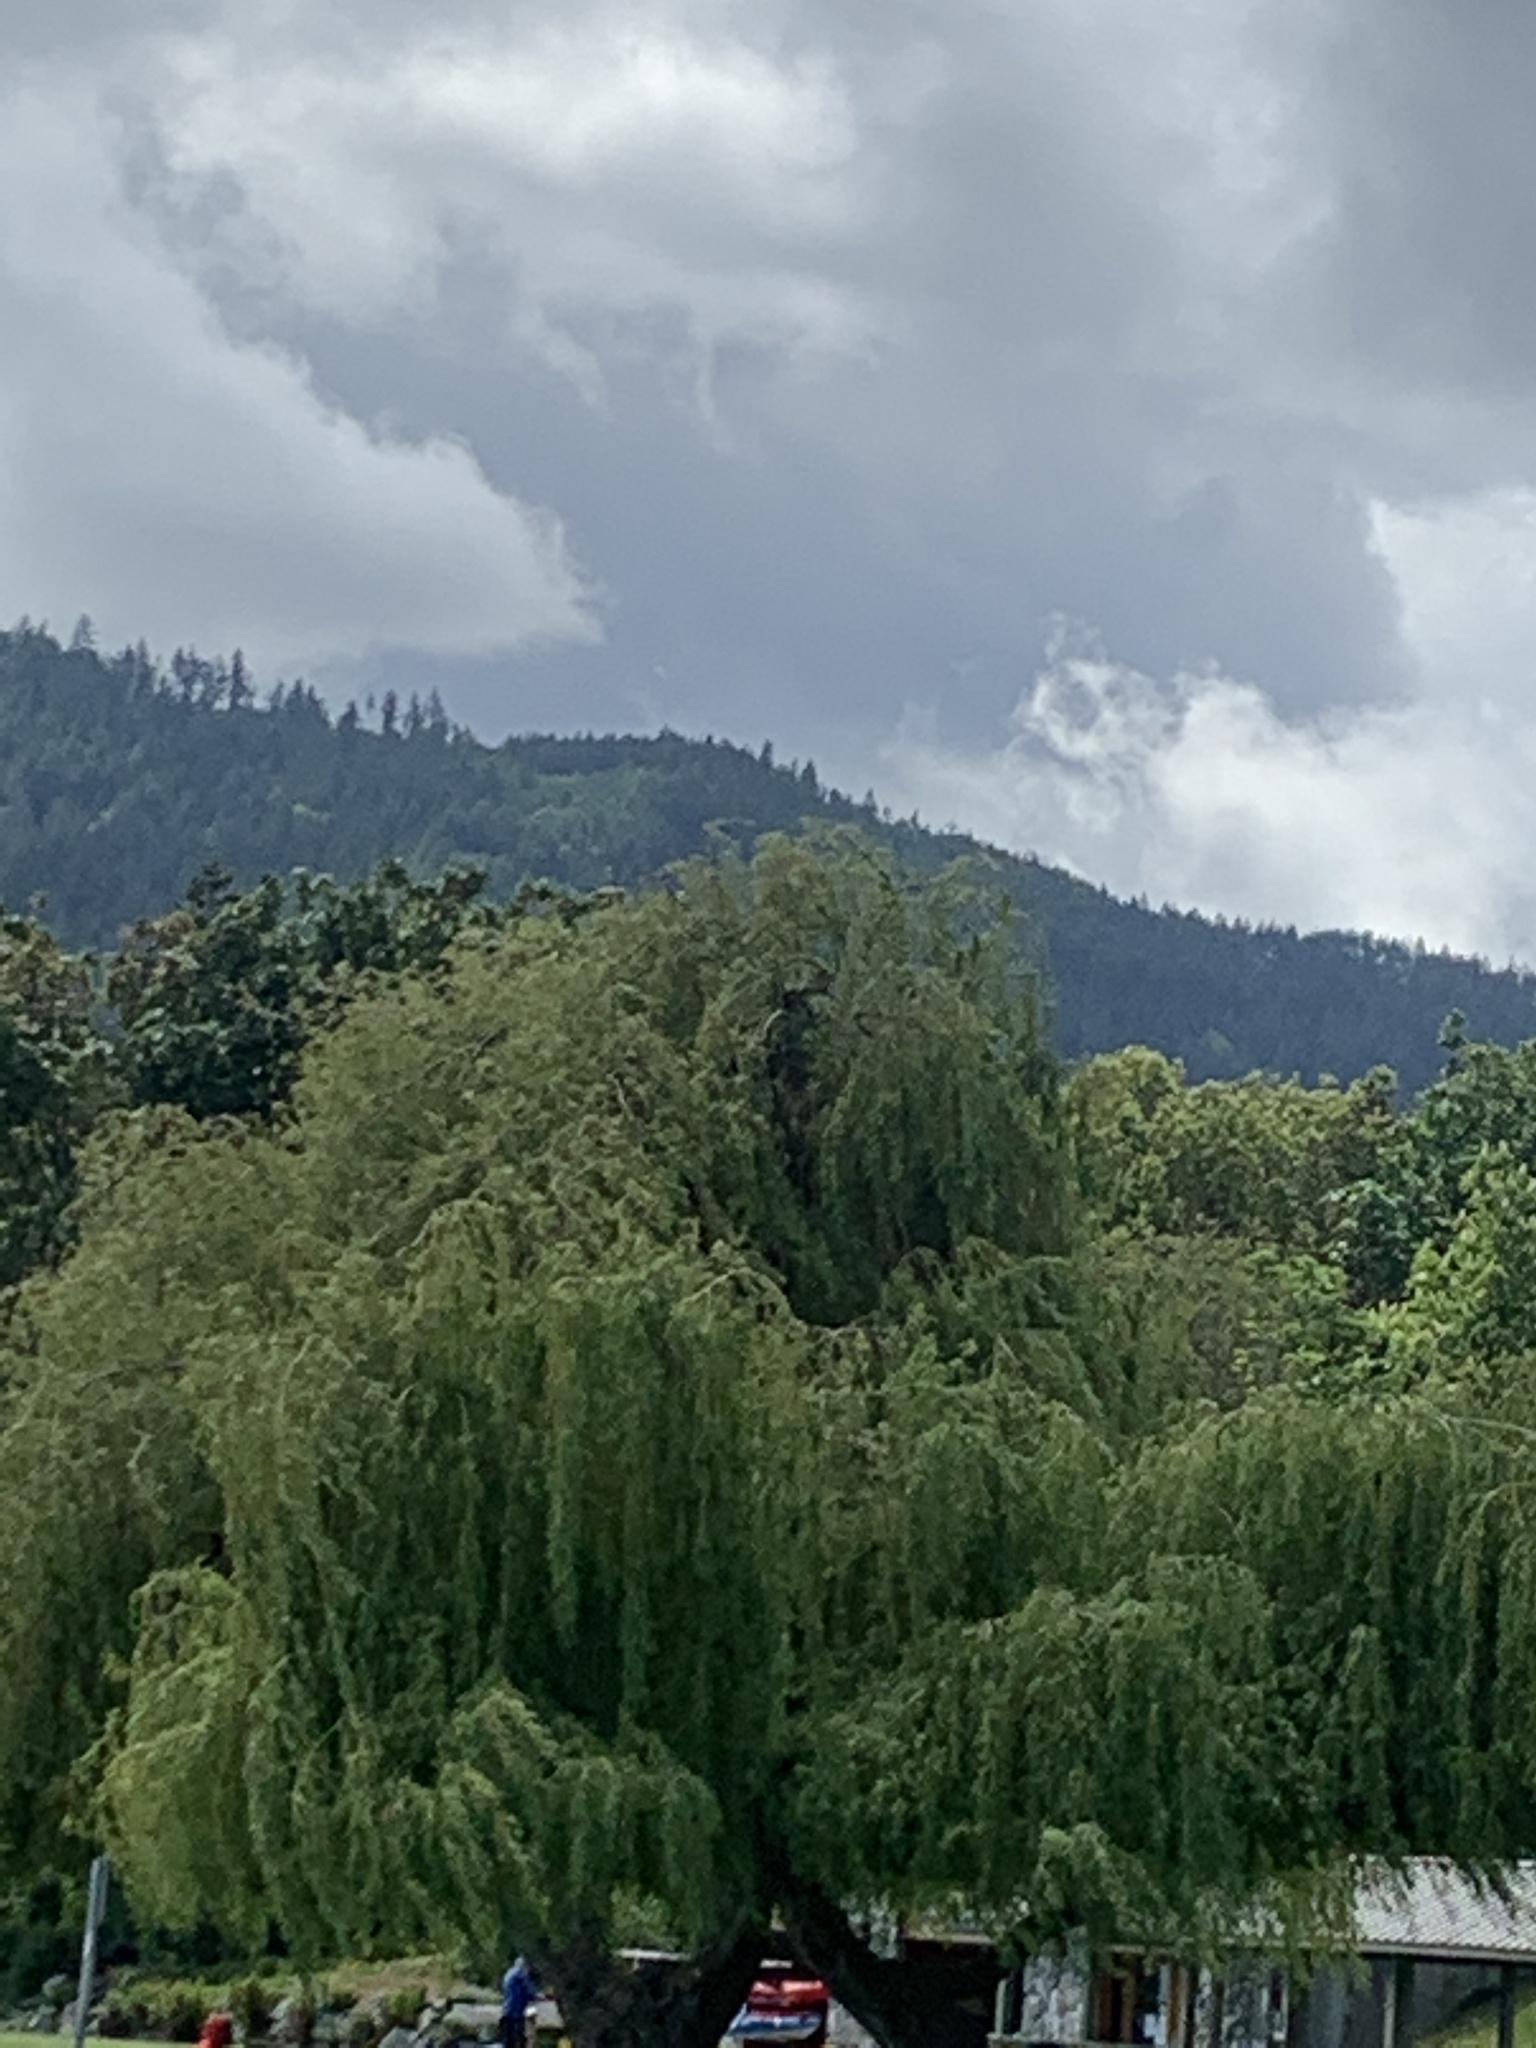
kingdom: Plantae
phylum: Tracheophyta
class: Magnoliopsida
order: Malpighiales
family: Salicaceae
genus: Salix
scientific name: Salix pendulina
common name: Wisconsin weeping willow
